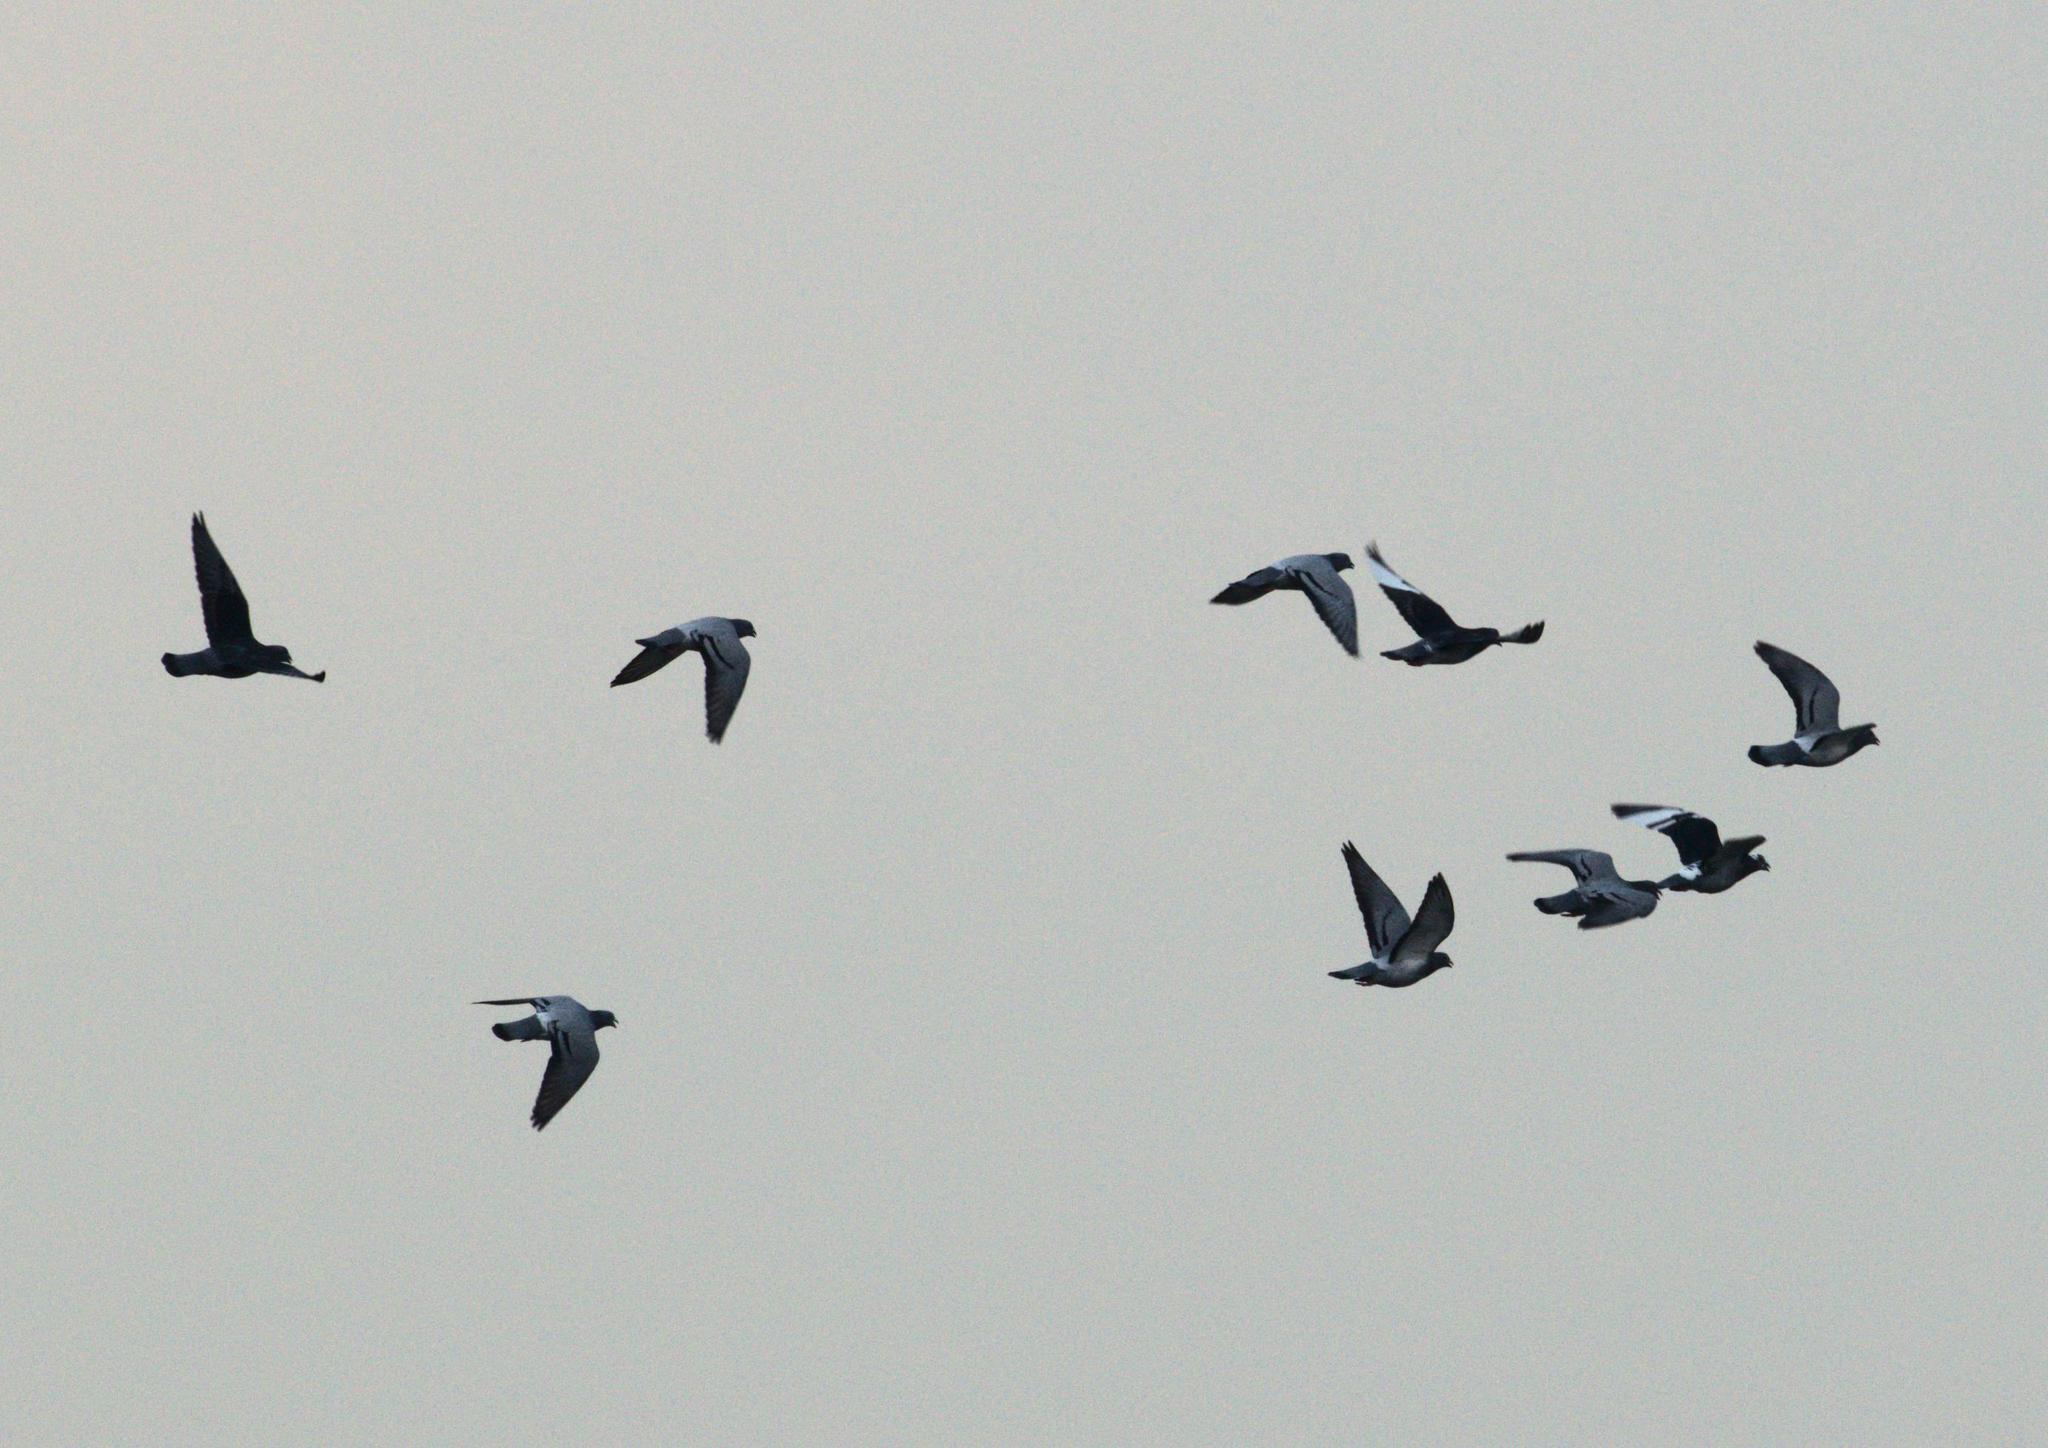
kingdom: Animalia
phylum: Chordata
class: Aves
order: Columbiformes
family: Columbidae
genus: Columba
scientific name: Columba livia
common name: Rock pigeon
